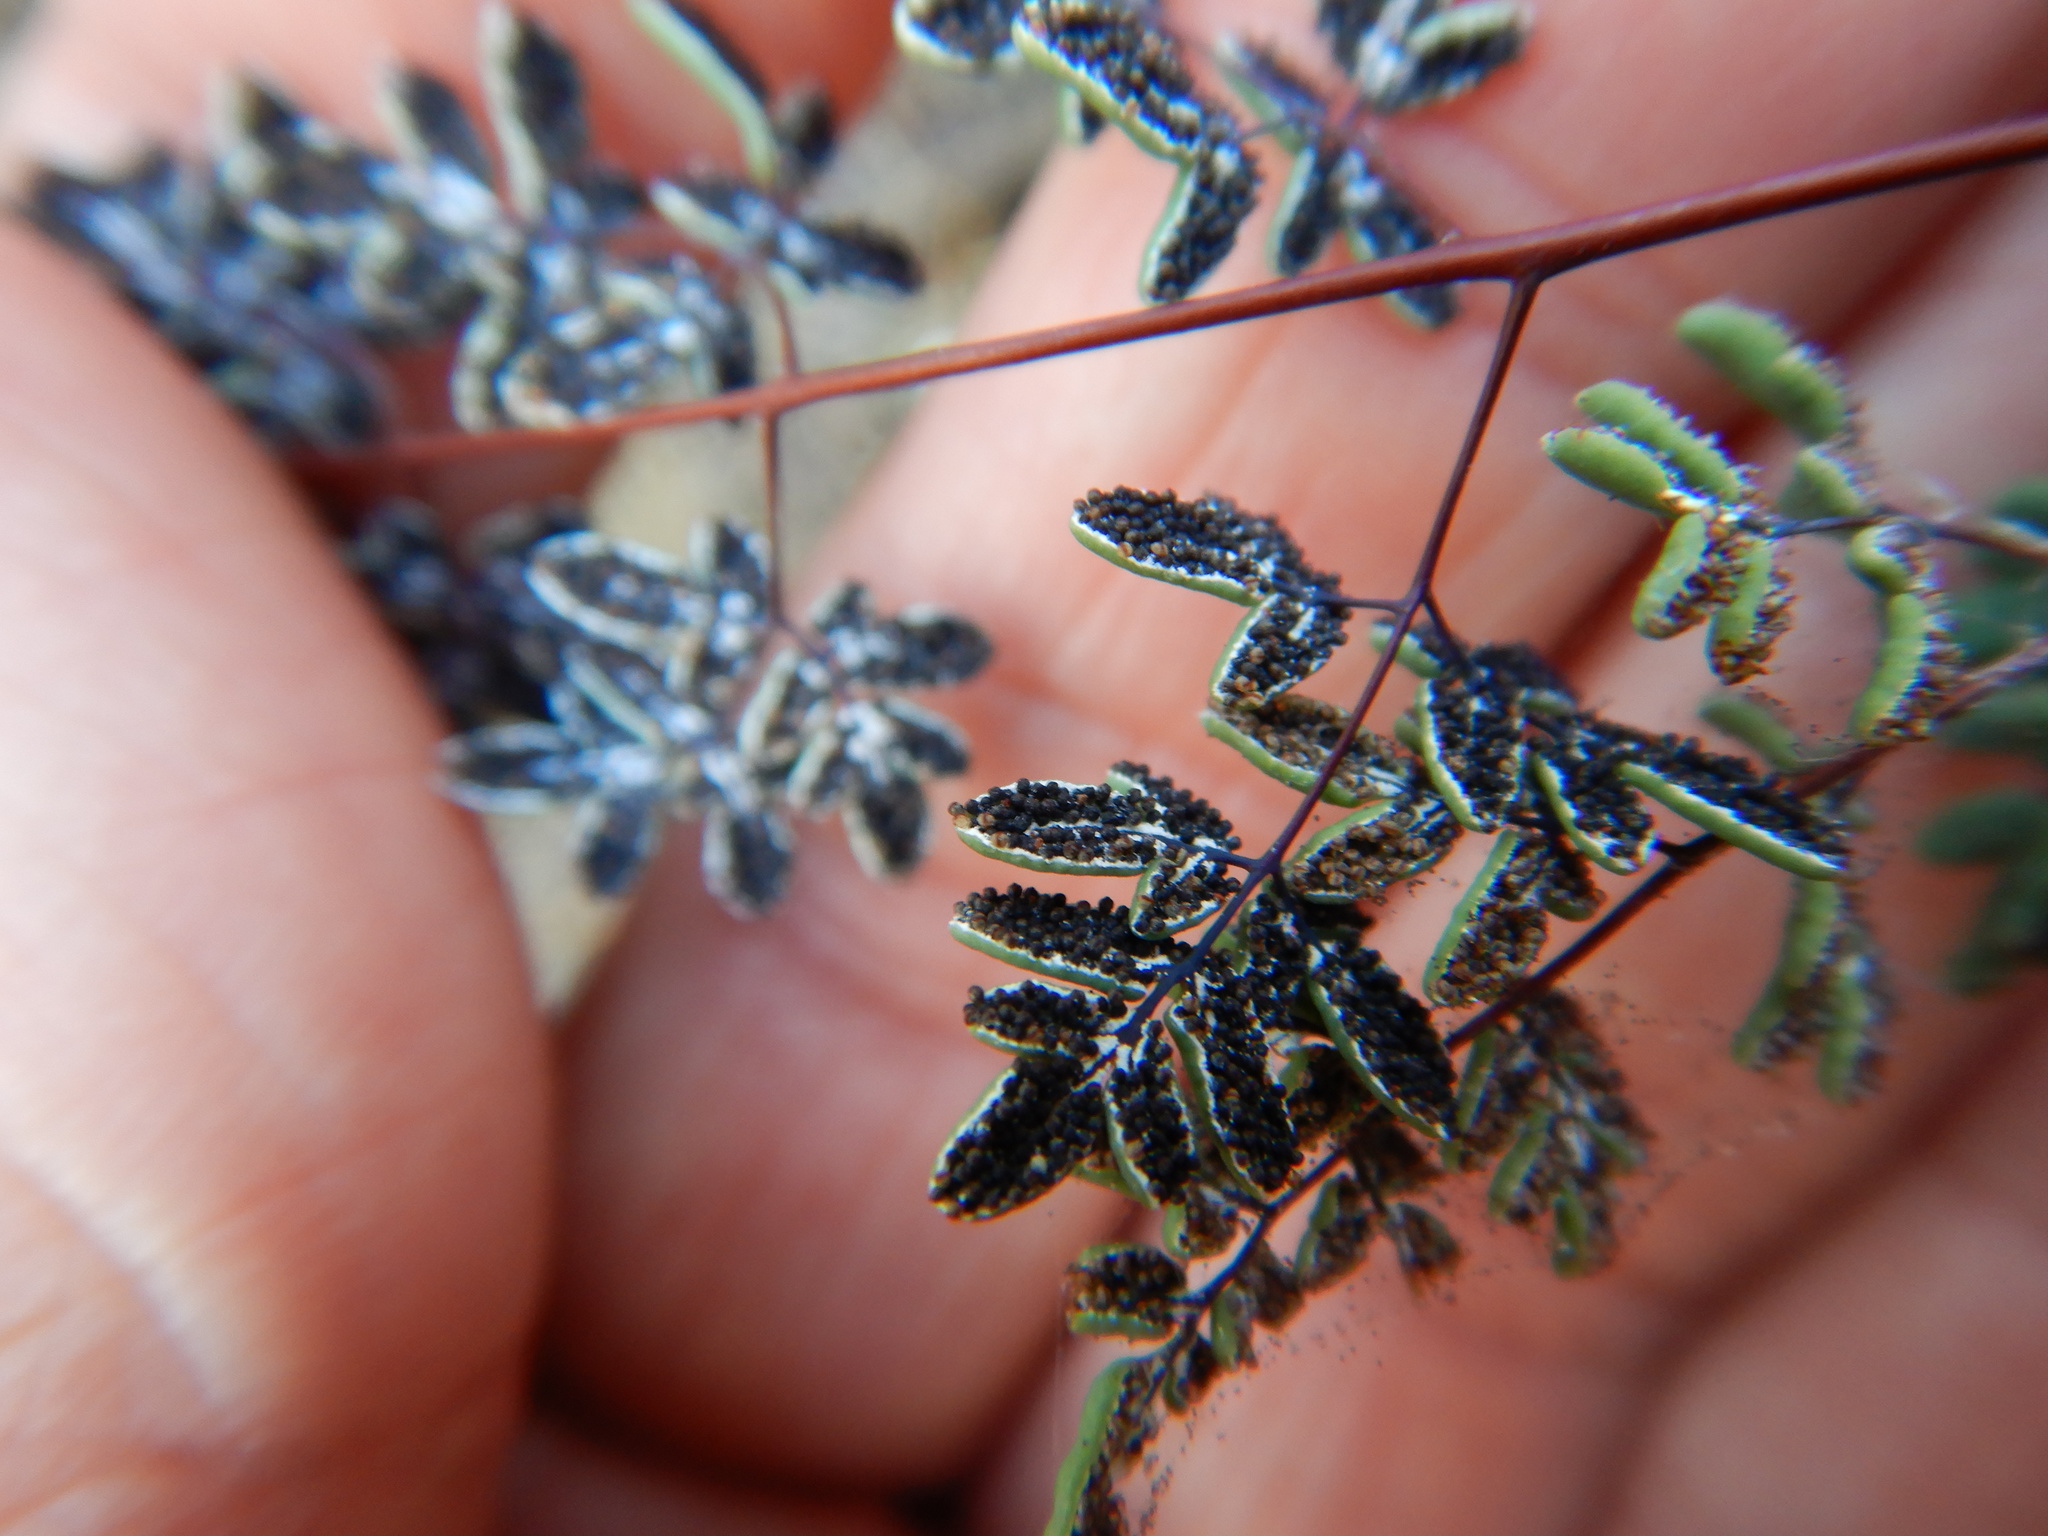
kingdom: Plantae
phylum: Tracheophyta
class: Polypodiopsida
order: Polypodiales
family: Pteridaceae
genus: Argyrochosma
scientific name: Argyrochosma limitanea
